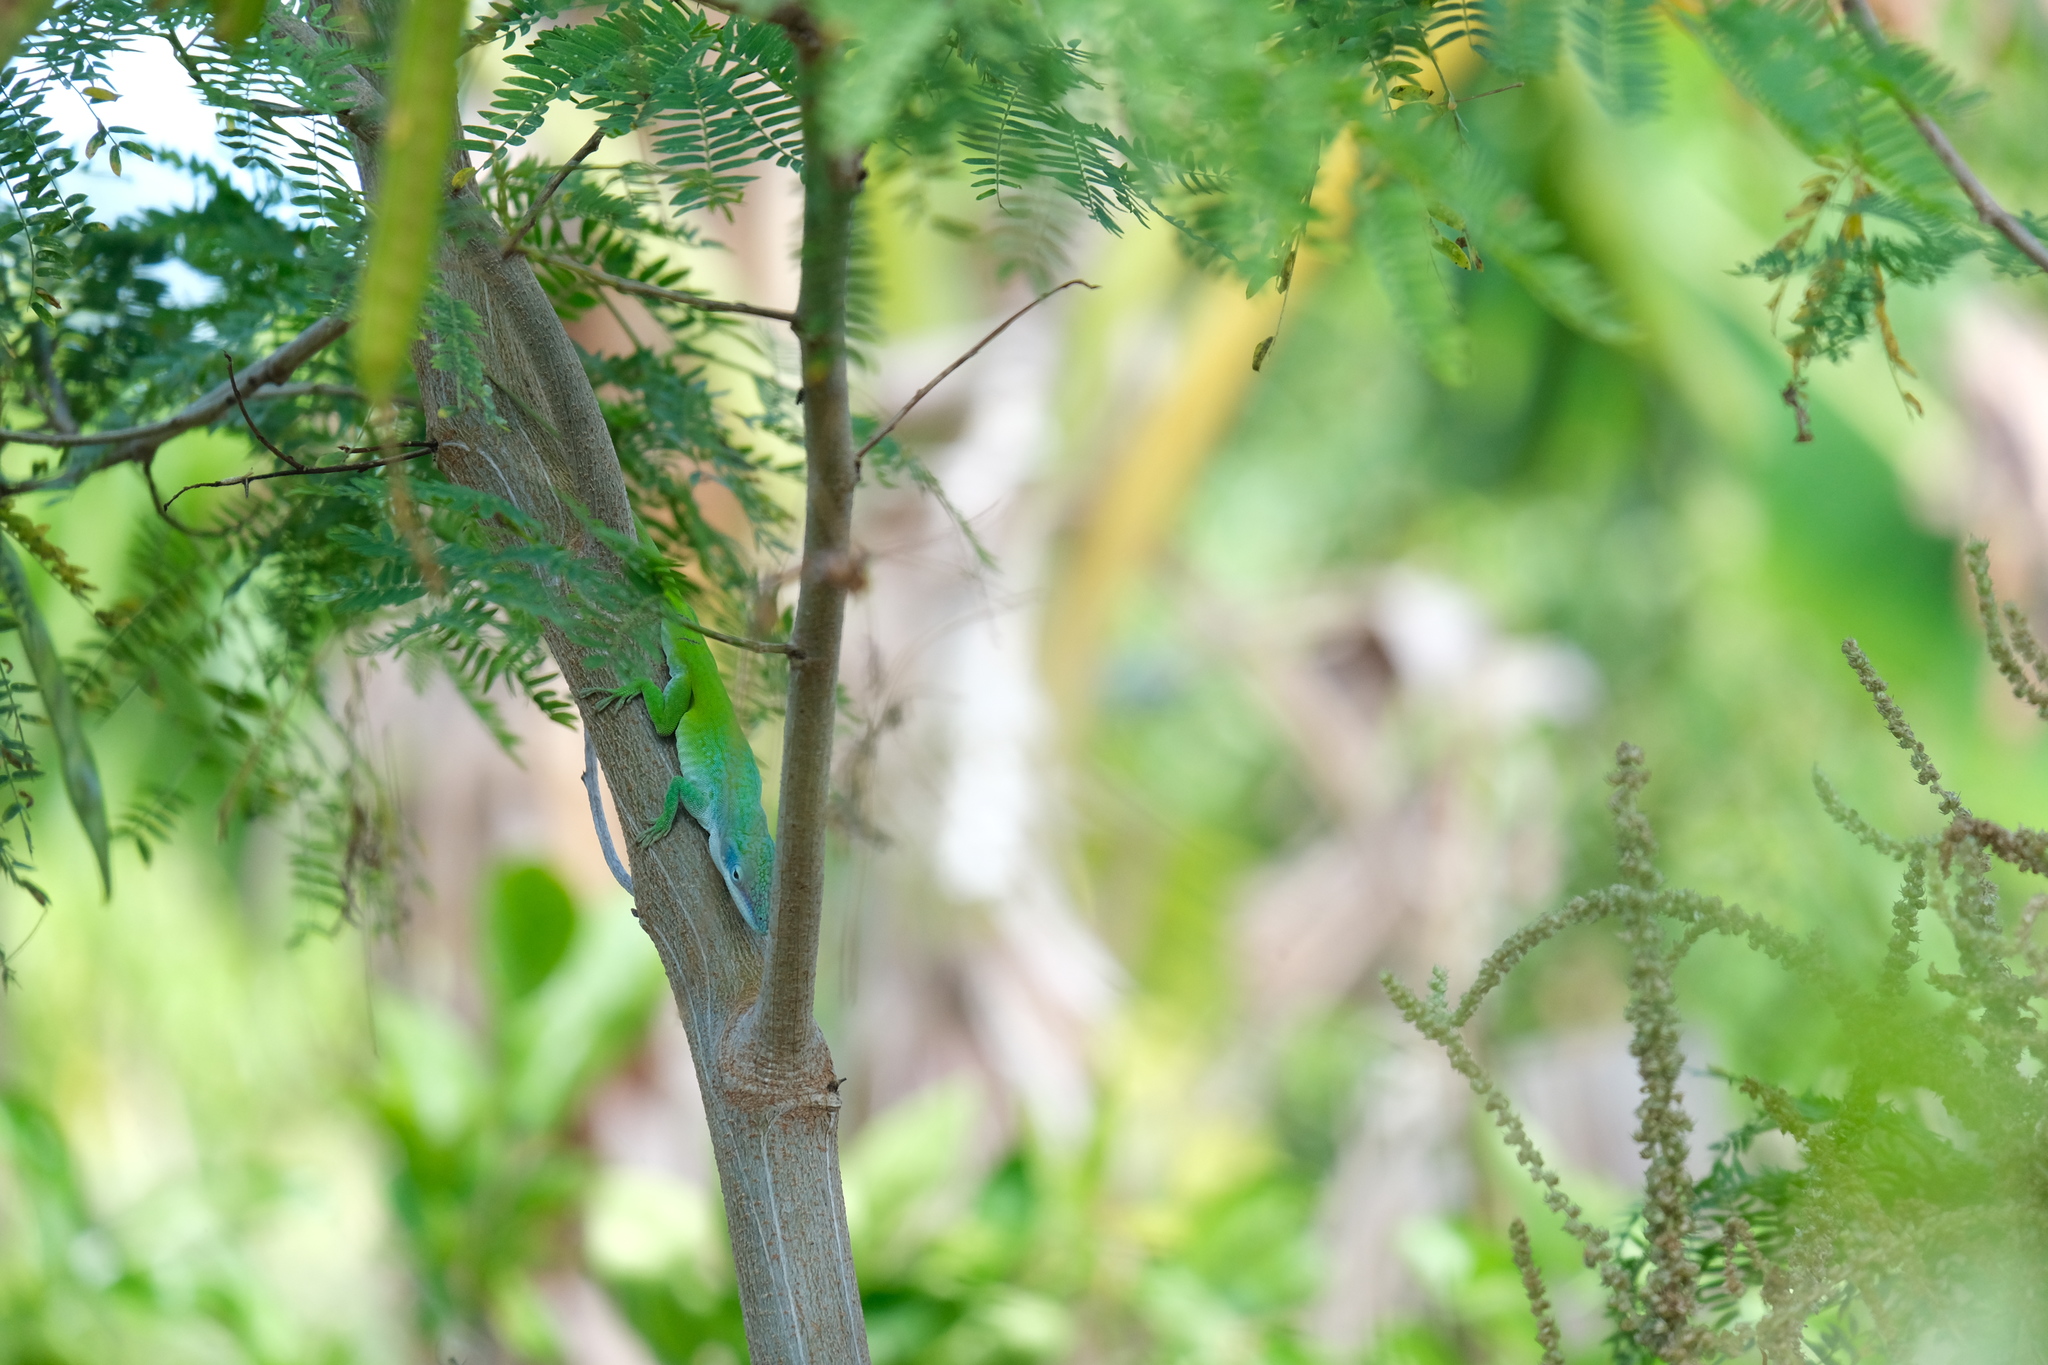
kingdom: Animalia
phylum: Chordata
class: Squamata
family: Dactyloidae
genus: Anolis
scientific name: Anolis allisoni
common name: Allison's anole
